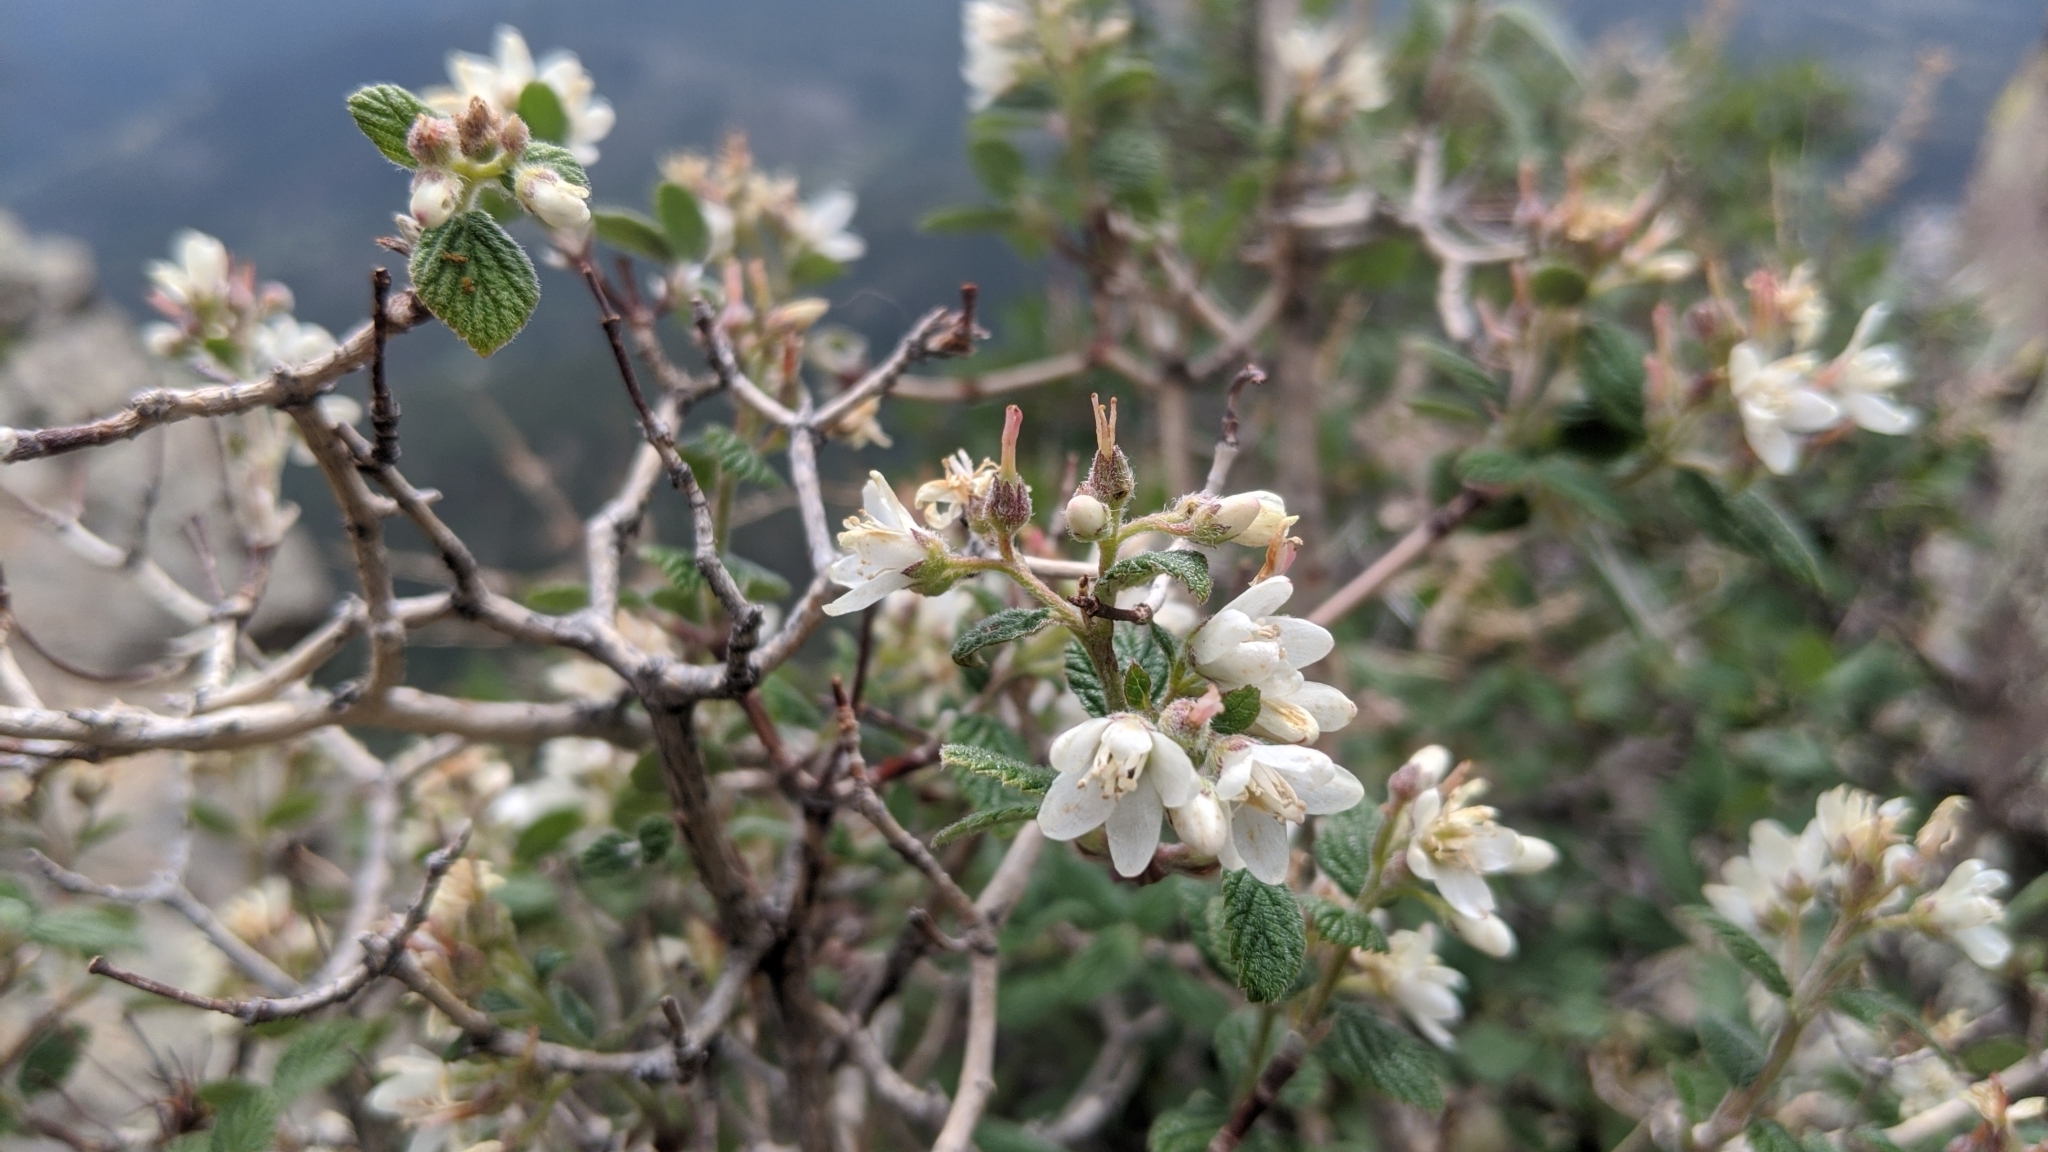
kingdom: Plantae
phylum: Tracheophyta
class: Magnoliopsida
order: Cornales
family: Hydrangeaceae
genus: Jamesia
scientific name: Jamesia americana
